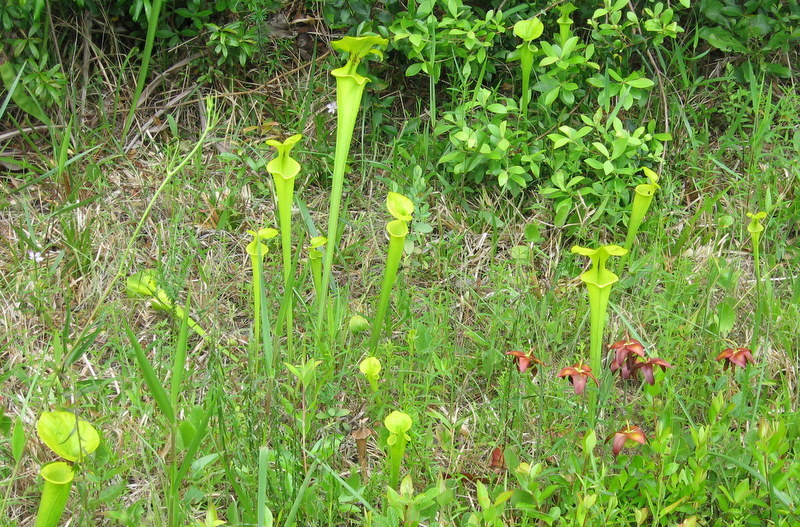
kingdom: Plantae
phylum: Tracheophyta
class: Magnoliopsida
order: Ericales
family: Sarraceniaceae
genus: Sarracenia
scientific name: Sarracenia flava
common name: Trumpets
